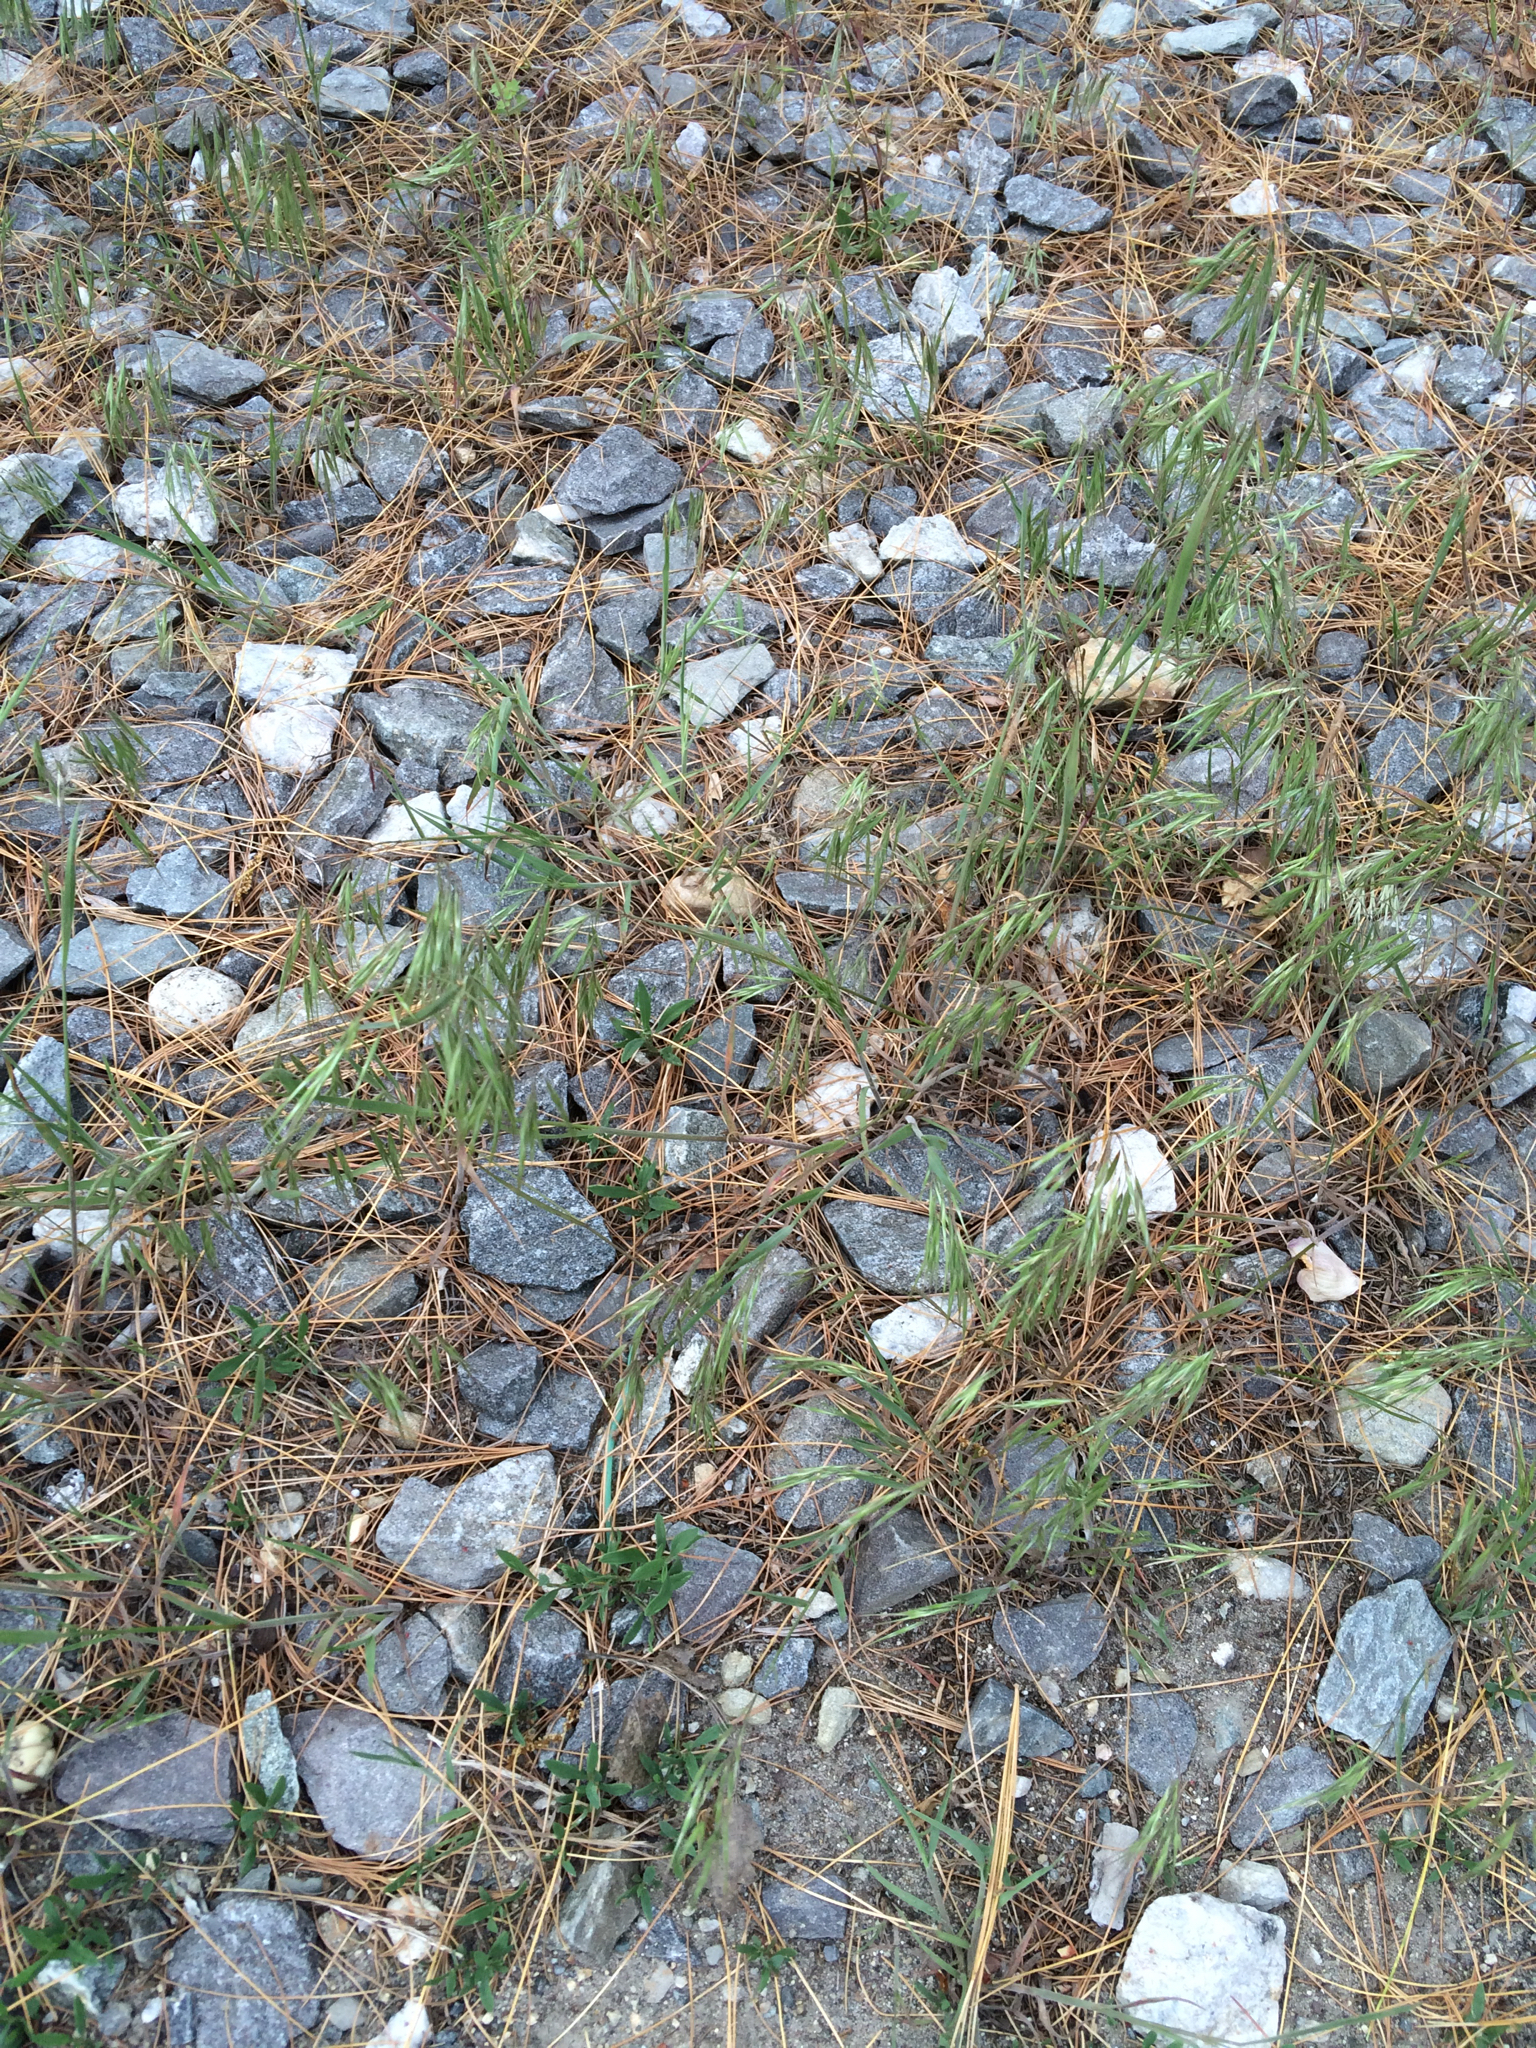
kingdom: Plantae
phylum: Tracheophyta
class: Liliopsida
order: Poales
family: Poaceae
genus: Bromus
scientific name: Bromus tectorum
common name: Cheatgrass
